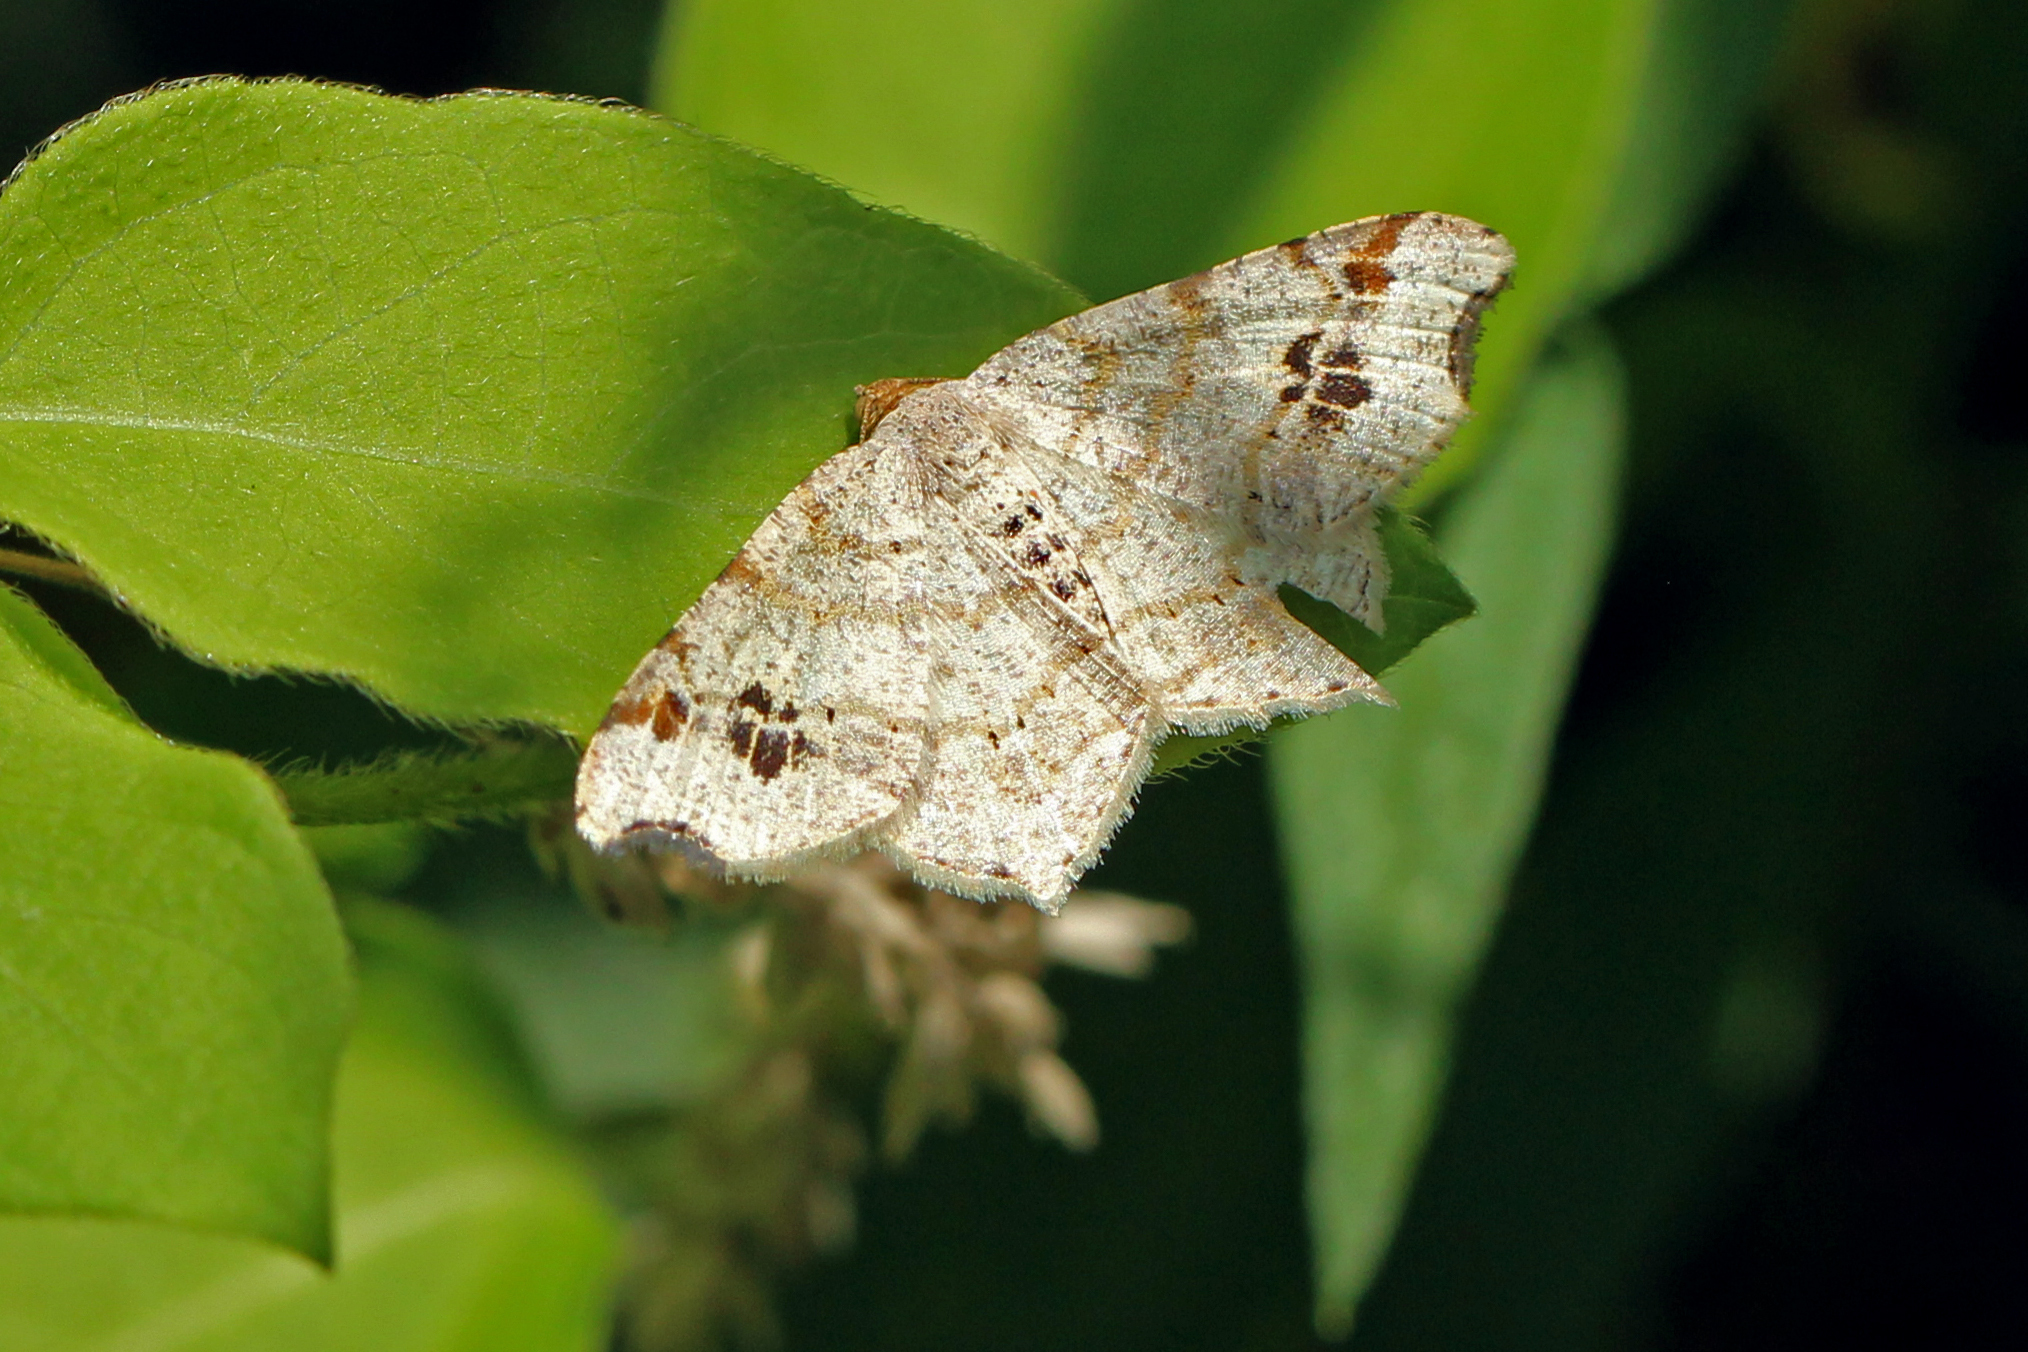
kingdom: Animalia
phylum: Arthropoda
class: Insecta
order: Lepidoptera
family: Geometridae
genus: Macaria
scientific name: Macaria aemulataria
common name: Common angle
